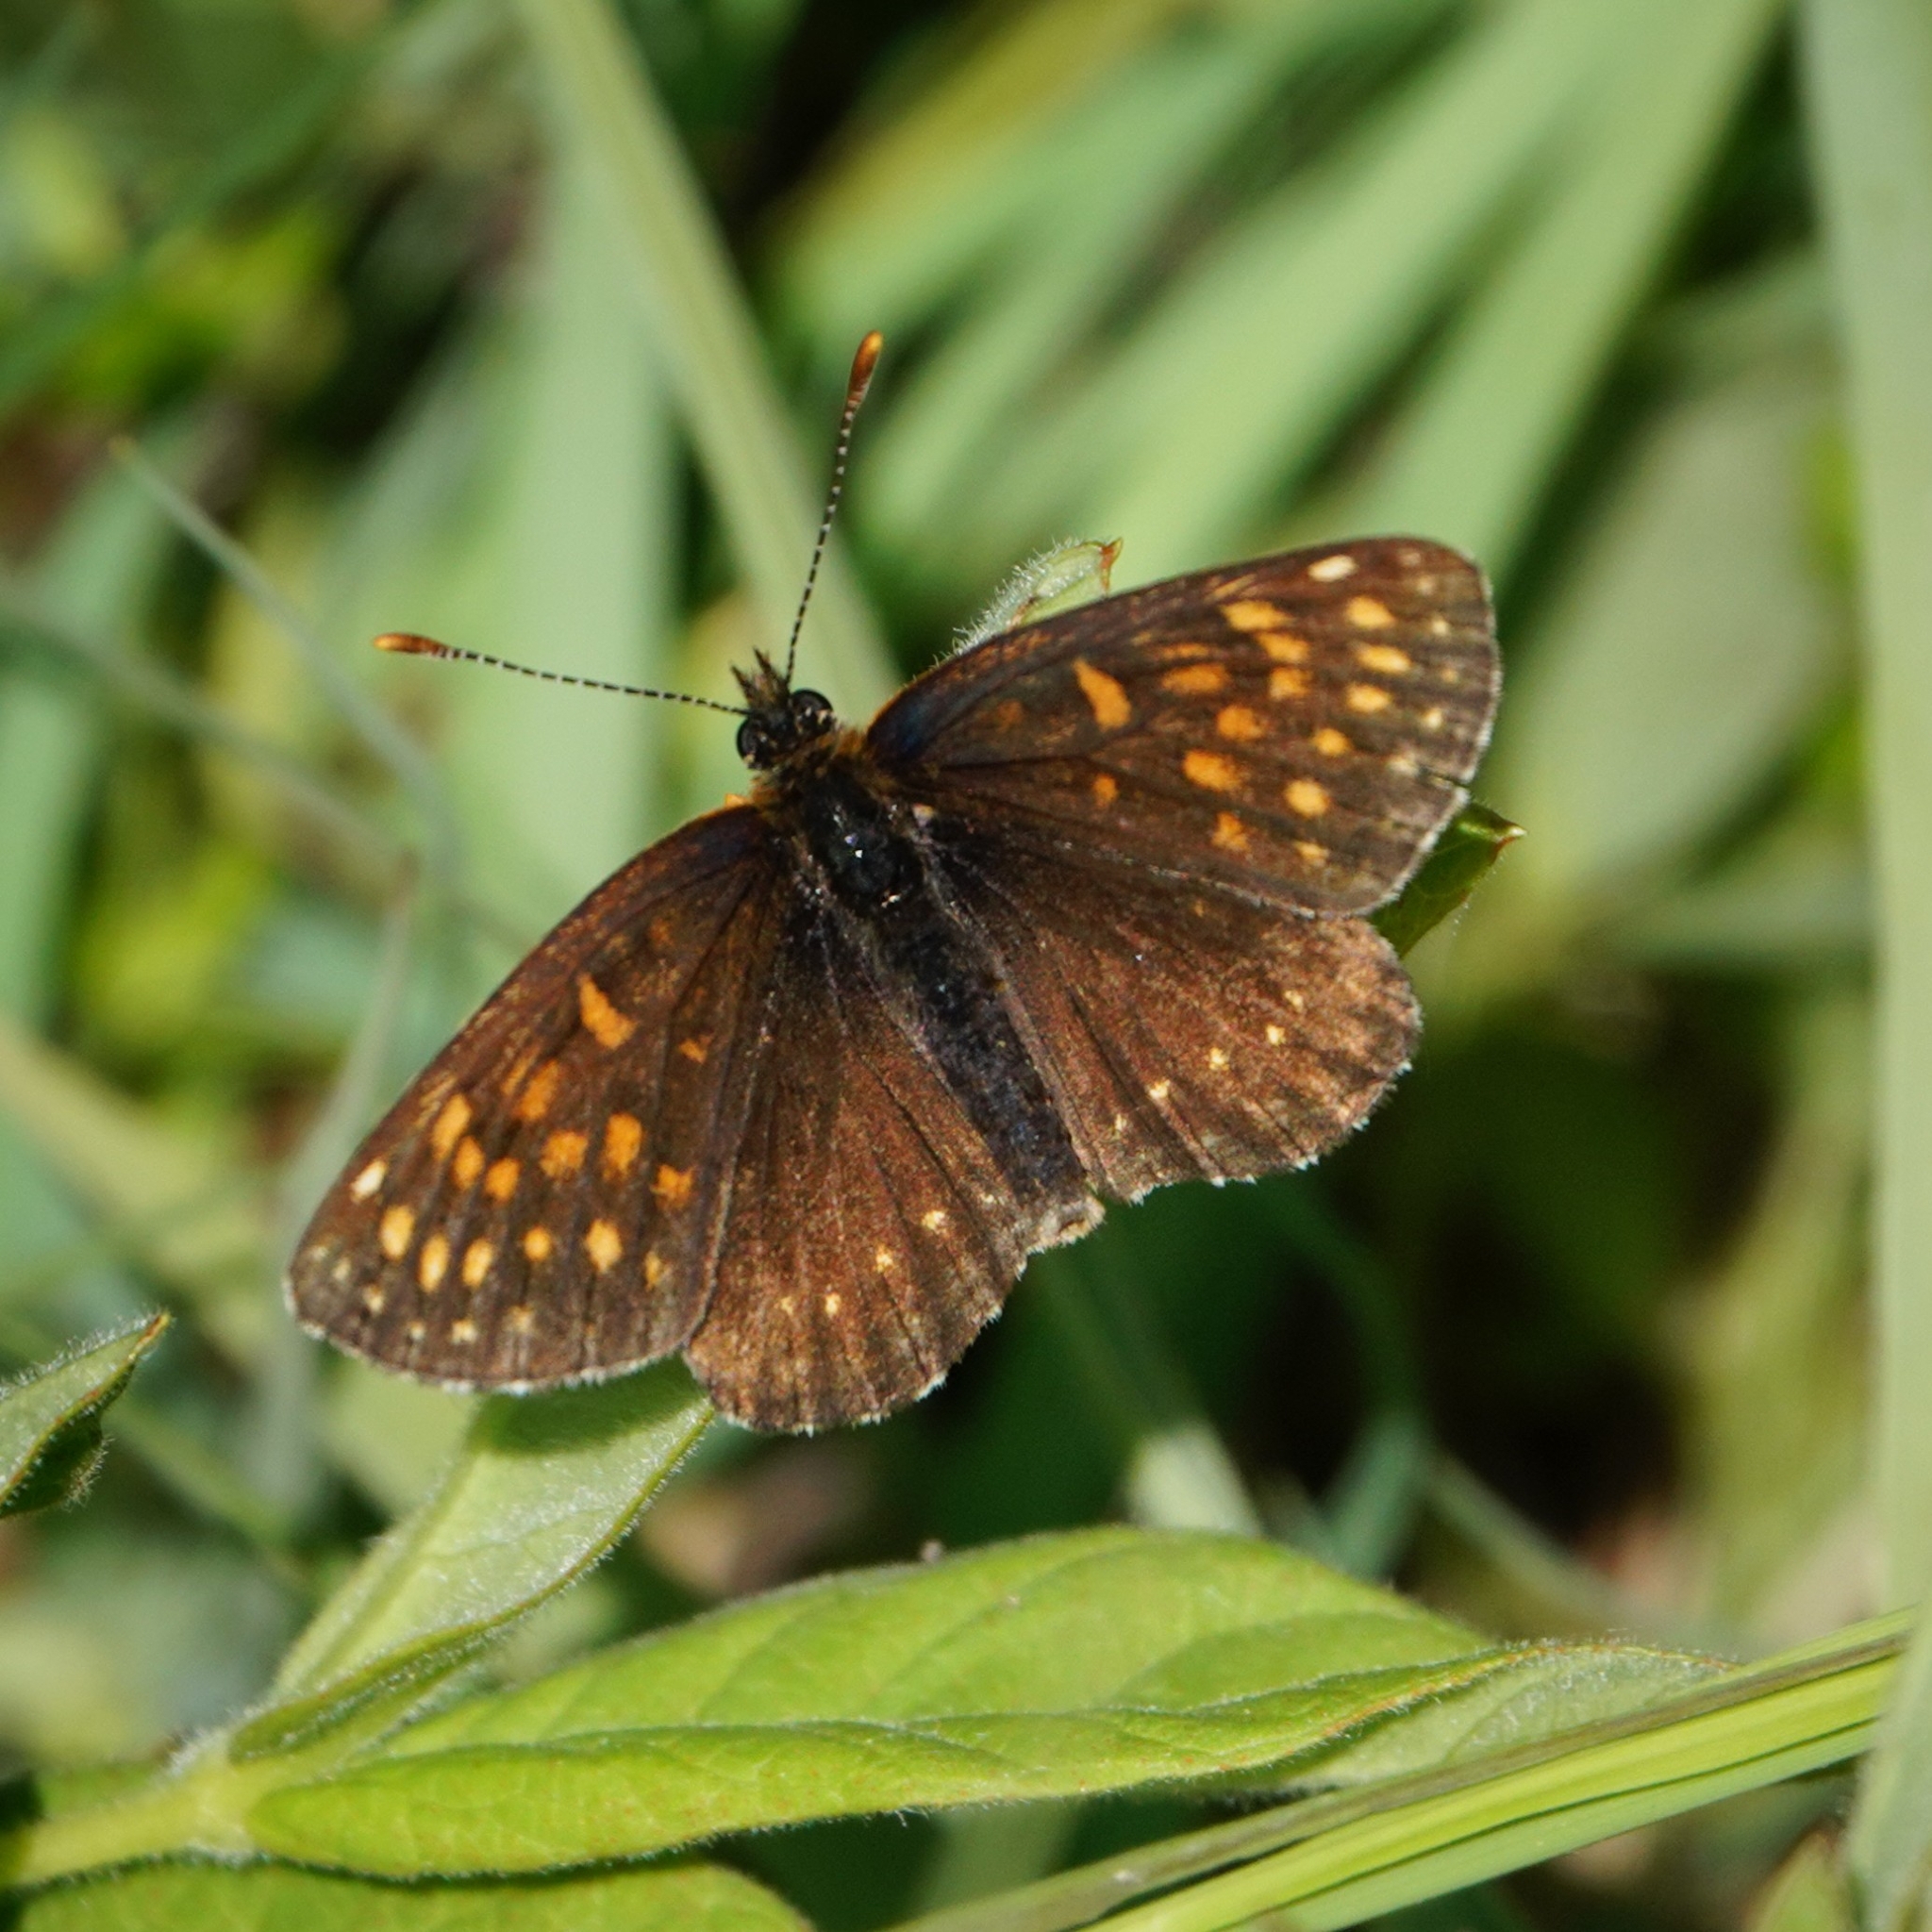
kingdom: Animalia
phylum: Arthropoda
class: Insecta
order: Lepidoptera
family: Nymphalidae
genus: Melitaea
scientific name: Melitaea diamina
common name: False heath fritillary
